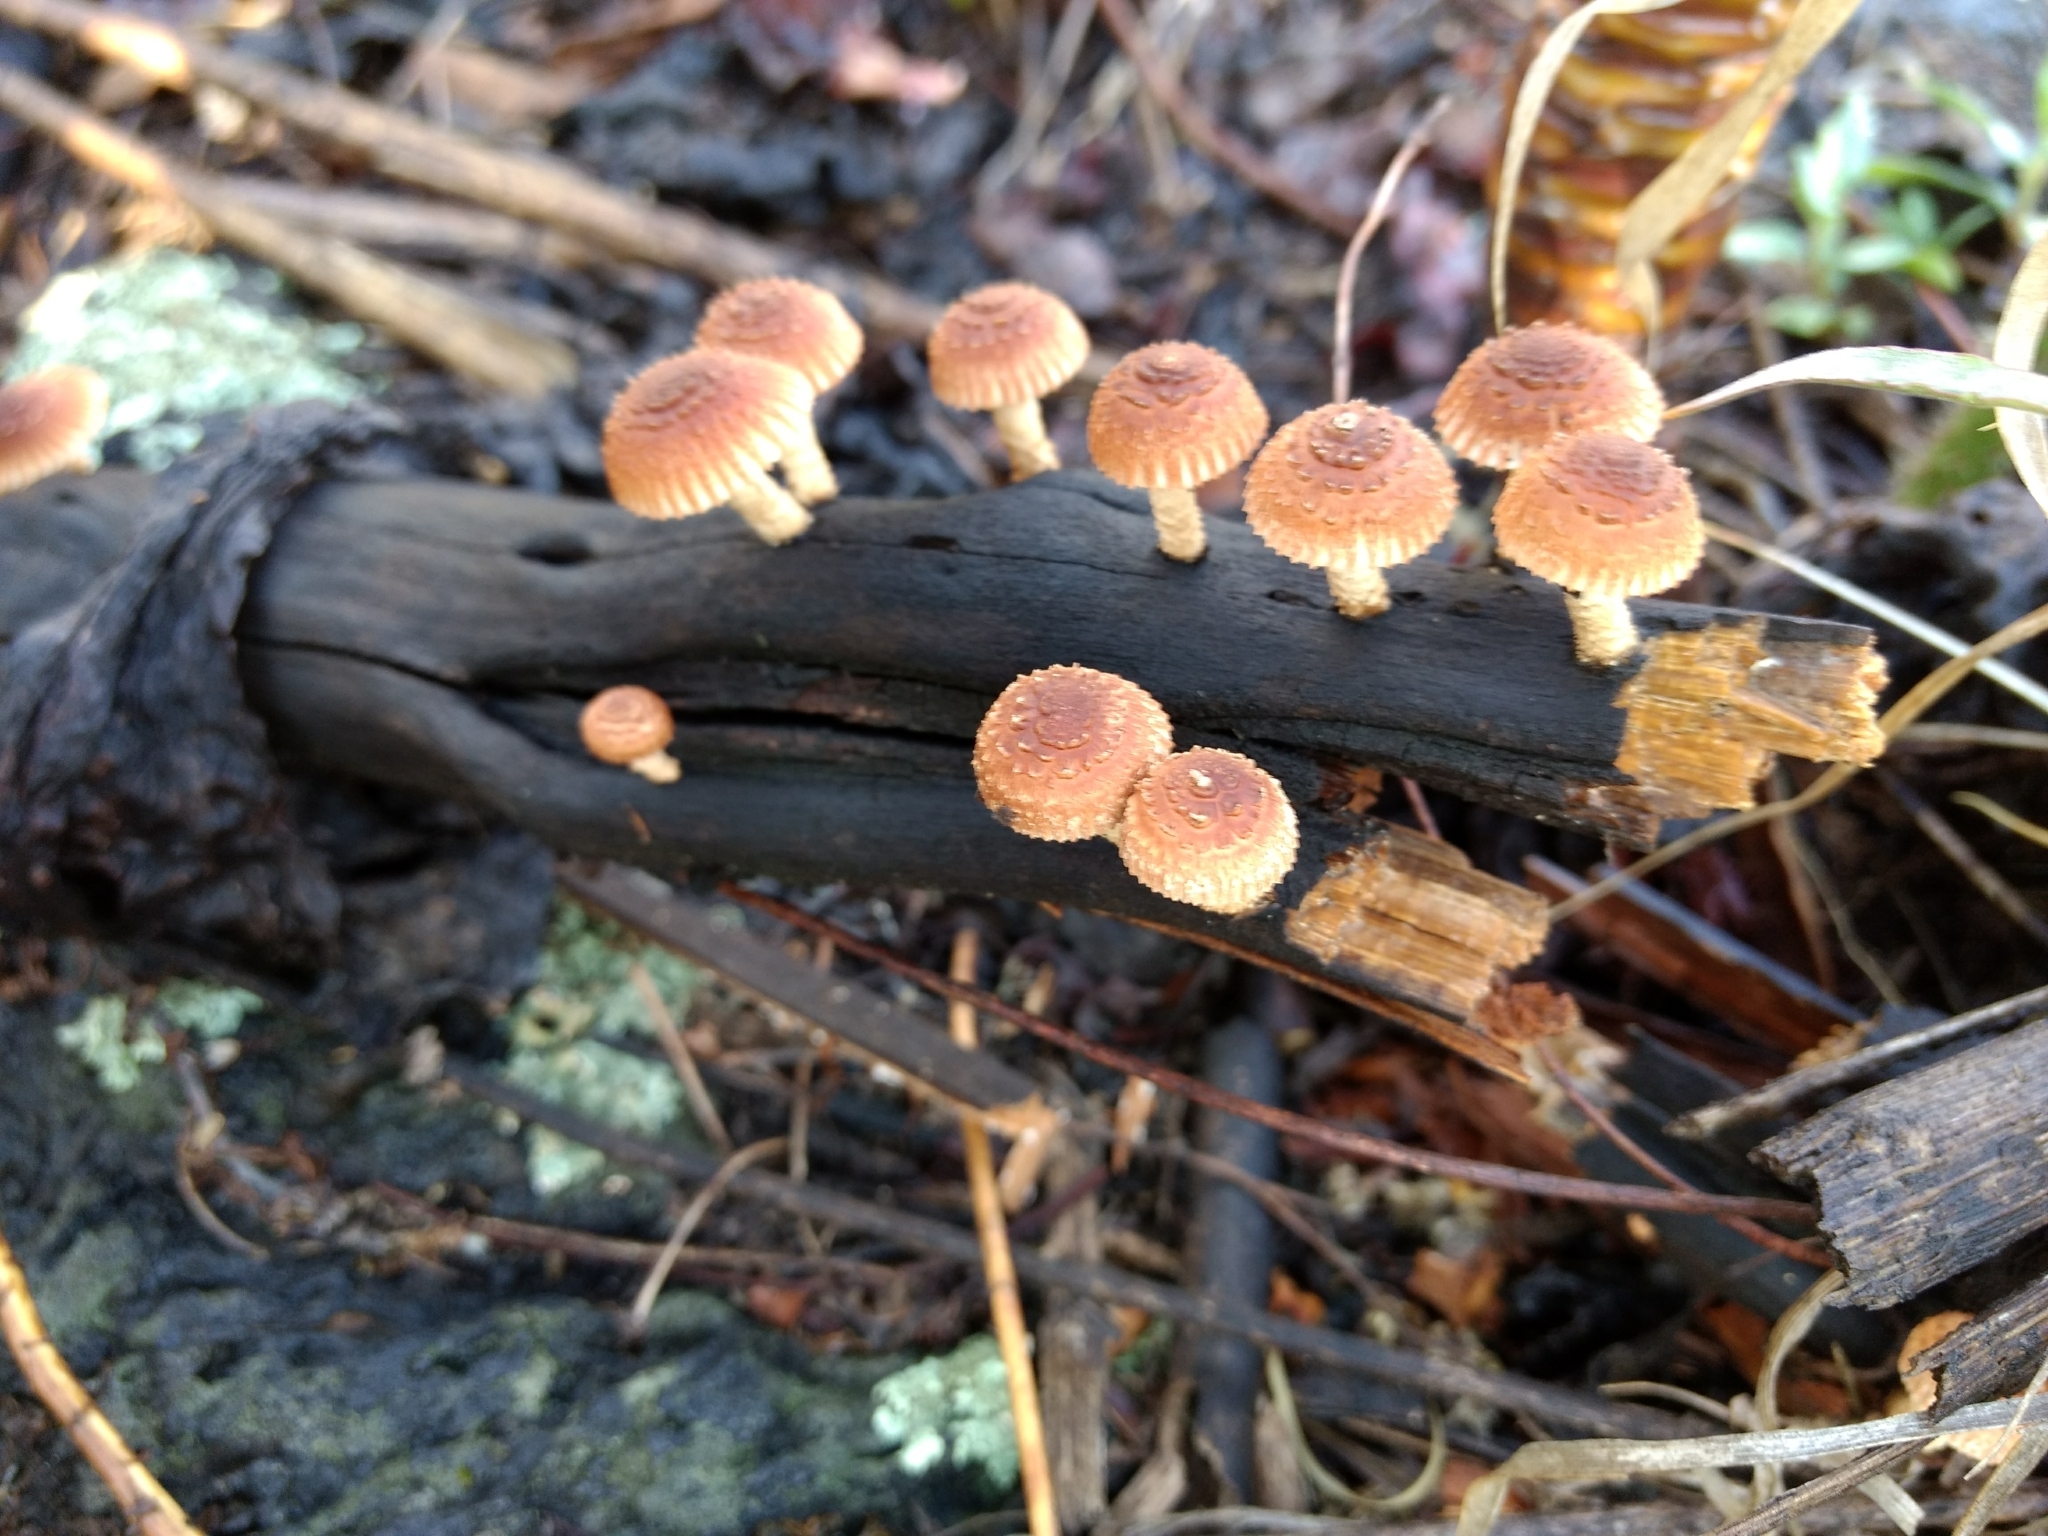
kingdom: Fungi
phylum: Basidiomycota
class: Agaricomycetes
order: Gloeophyllales
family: Gloeophyllaceae
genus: Heliocybe
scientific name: Heliocybe sulcata
